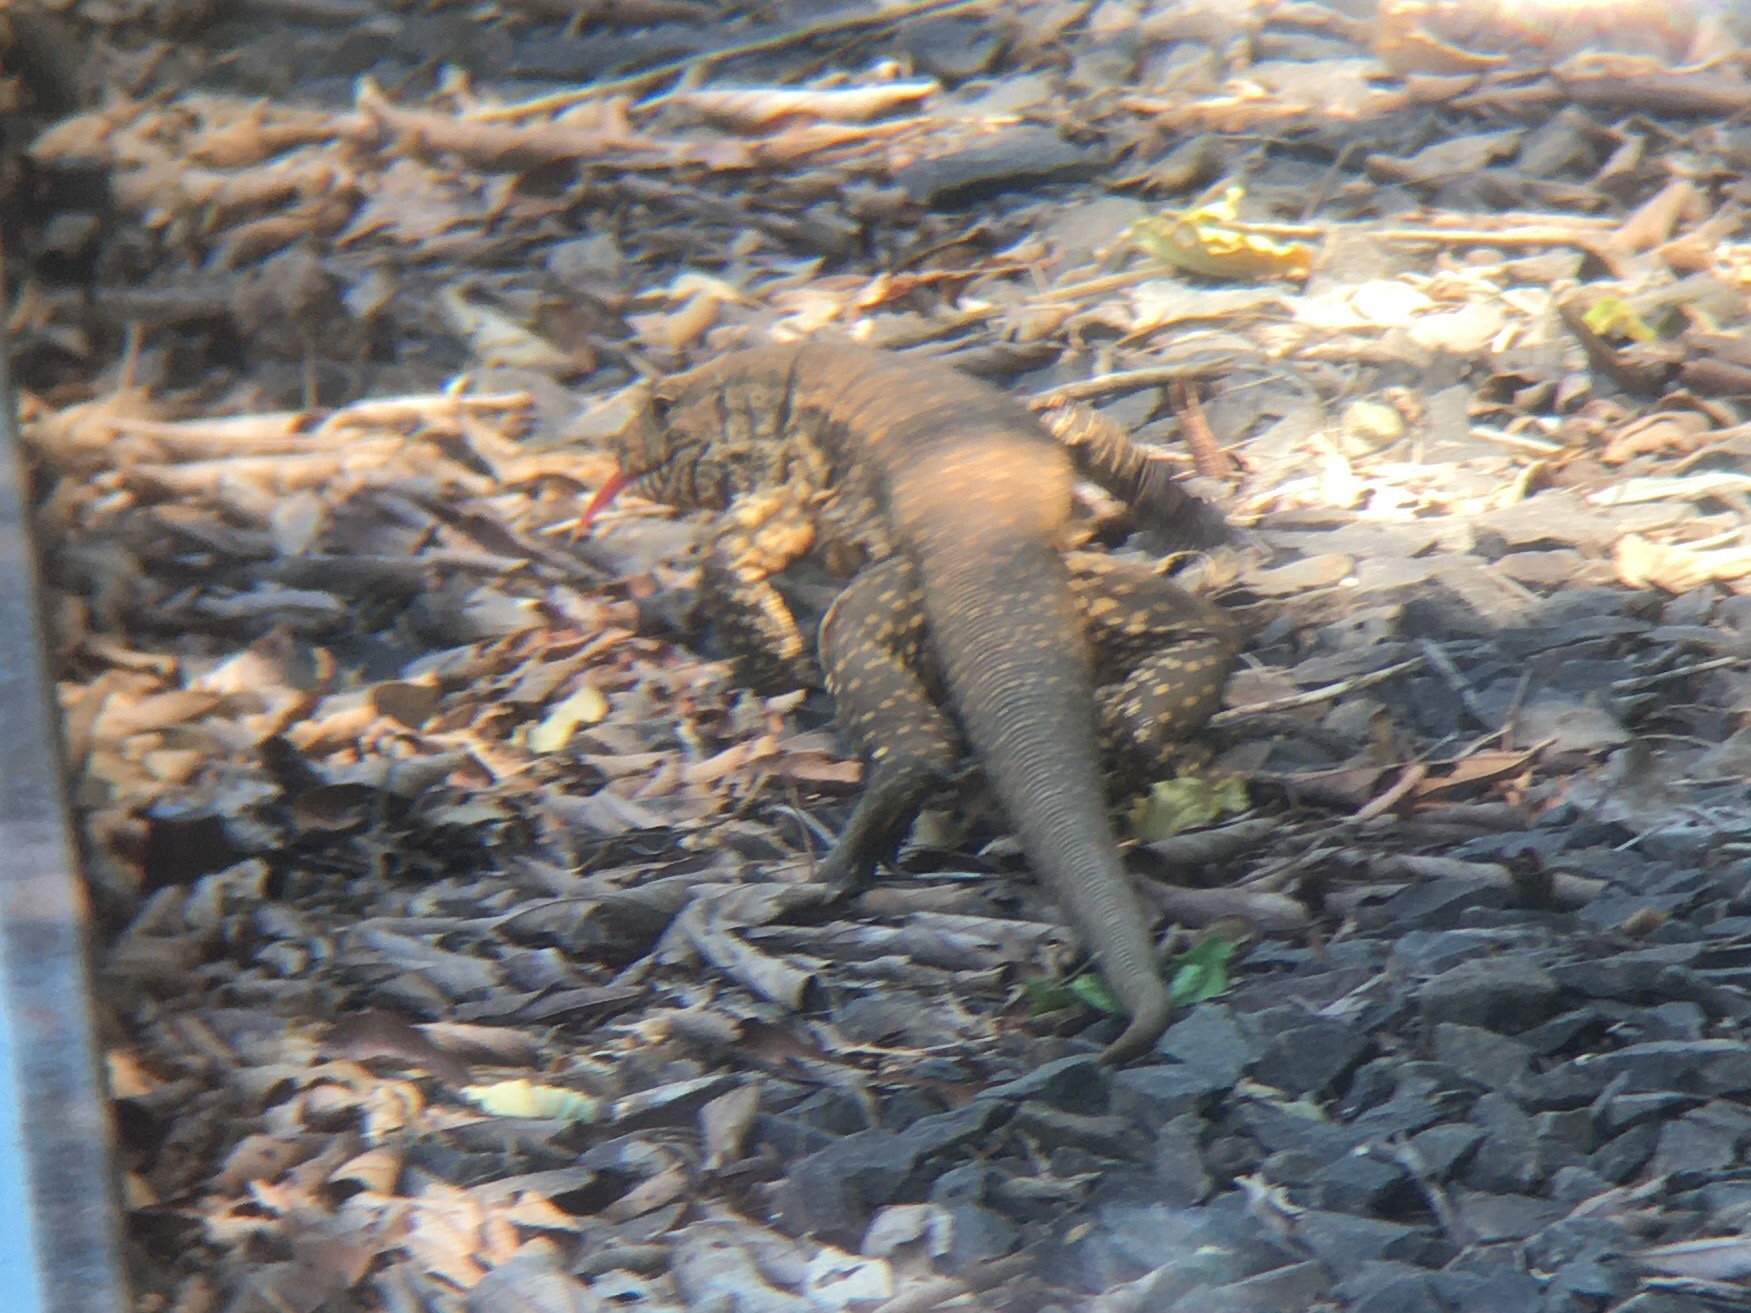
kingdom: Animalia
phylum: Chordata
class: Squamata
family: Teiidae
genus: Salvator
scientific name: Salvator merianae
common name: Argentine black and white tegu
